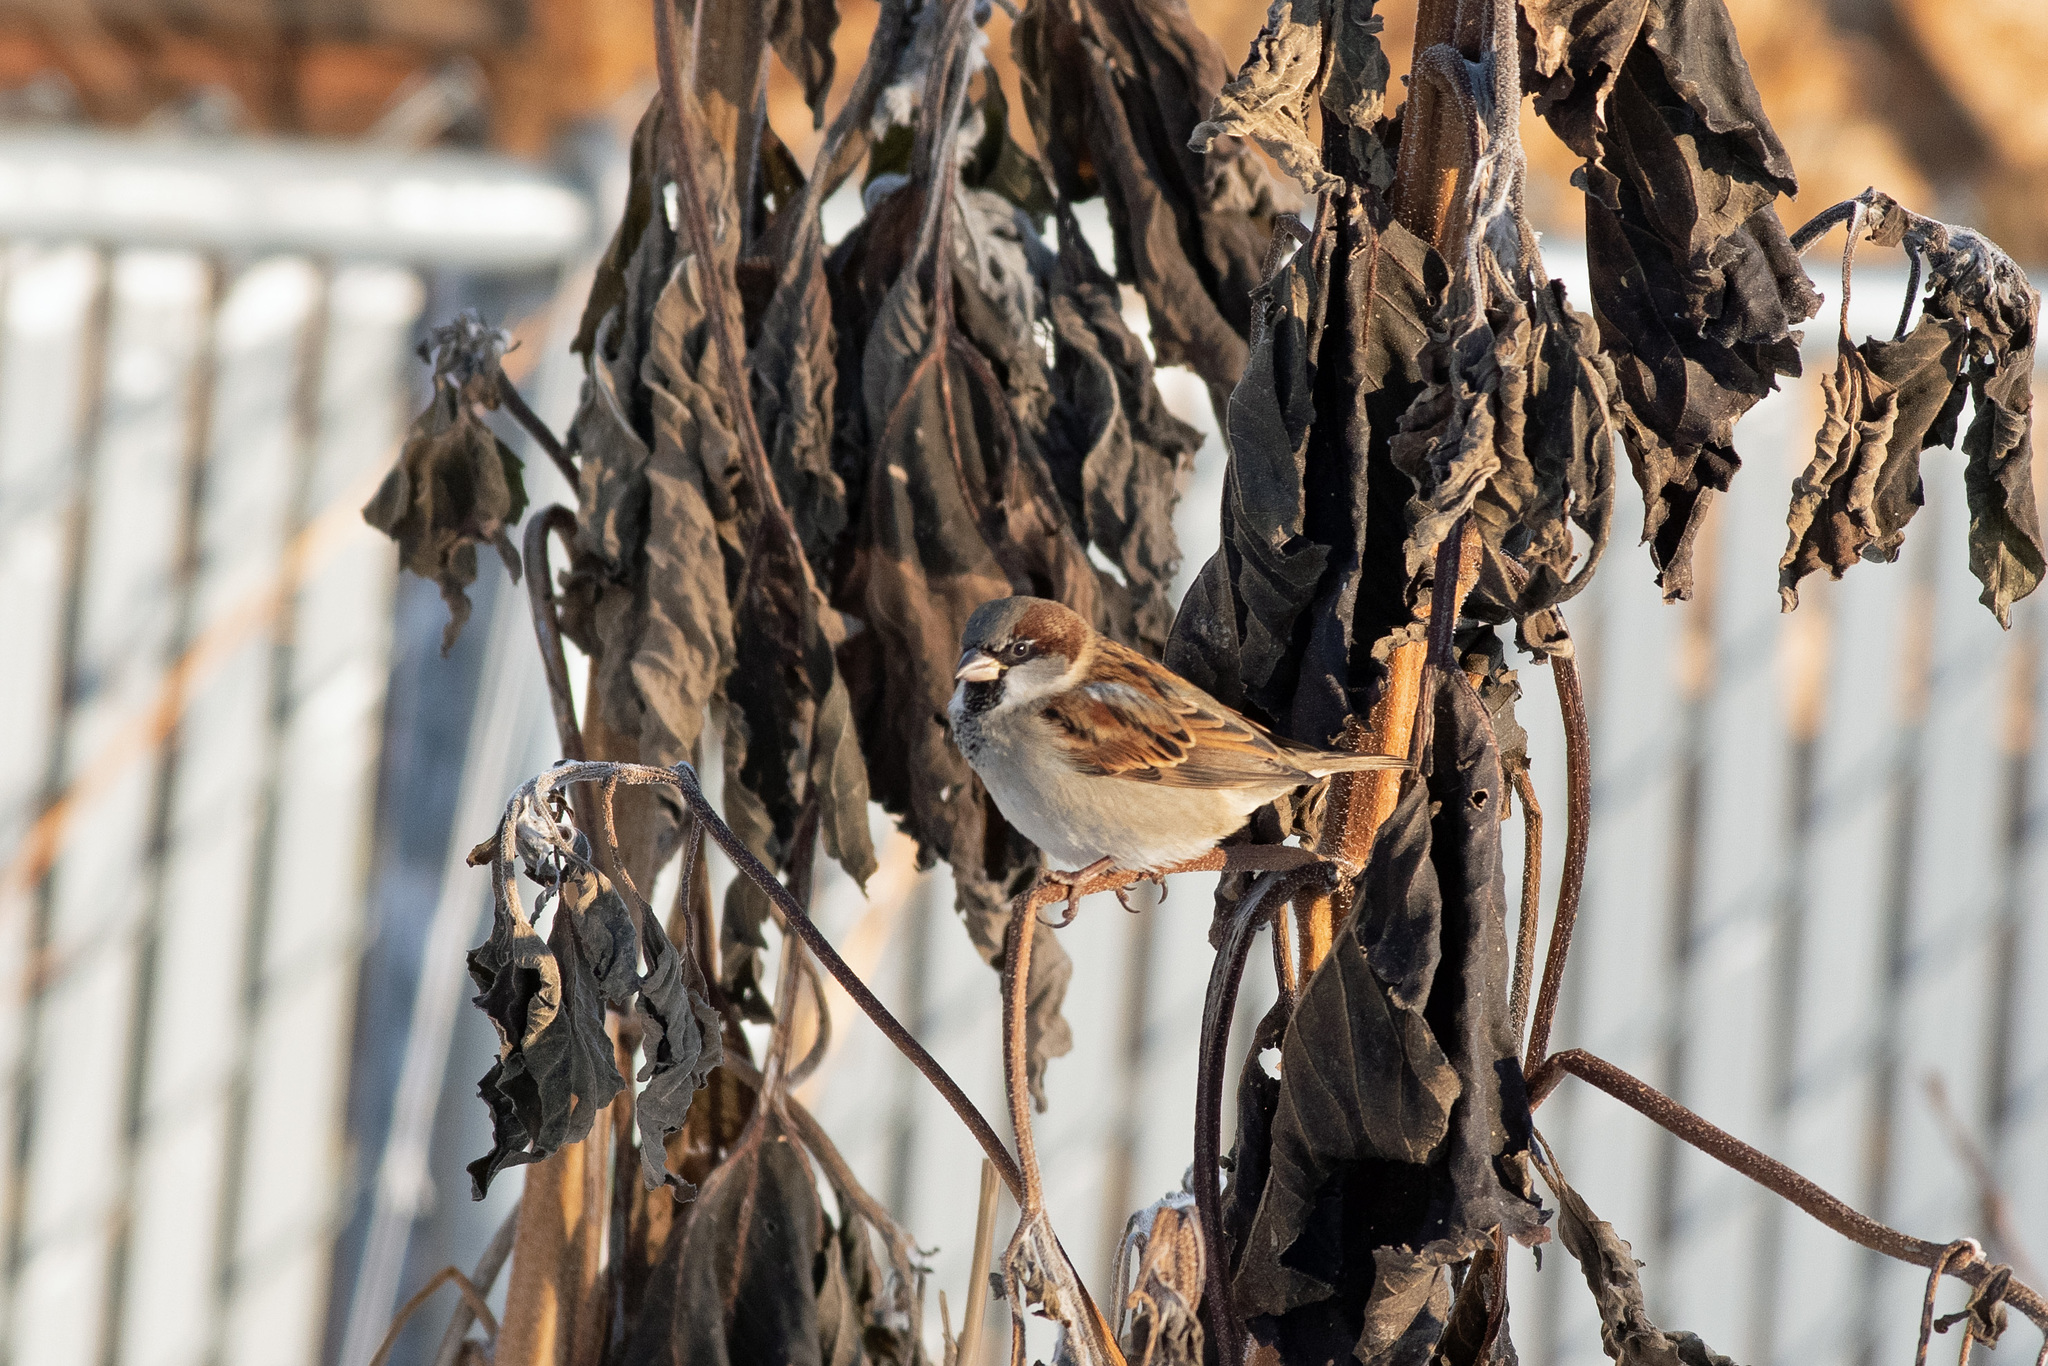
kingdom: Animalia
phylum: Chordata
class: Aves
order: Passeriformes
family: Passeridae
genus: Passer
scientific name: Passer domesticus
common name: House sparrow
